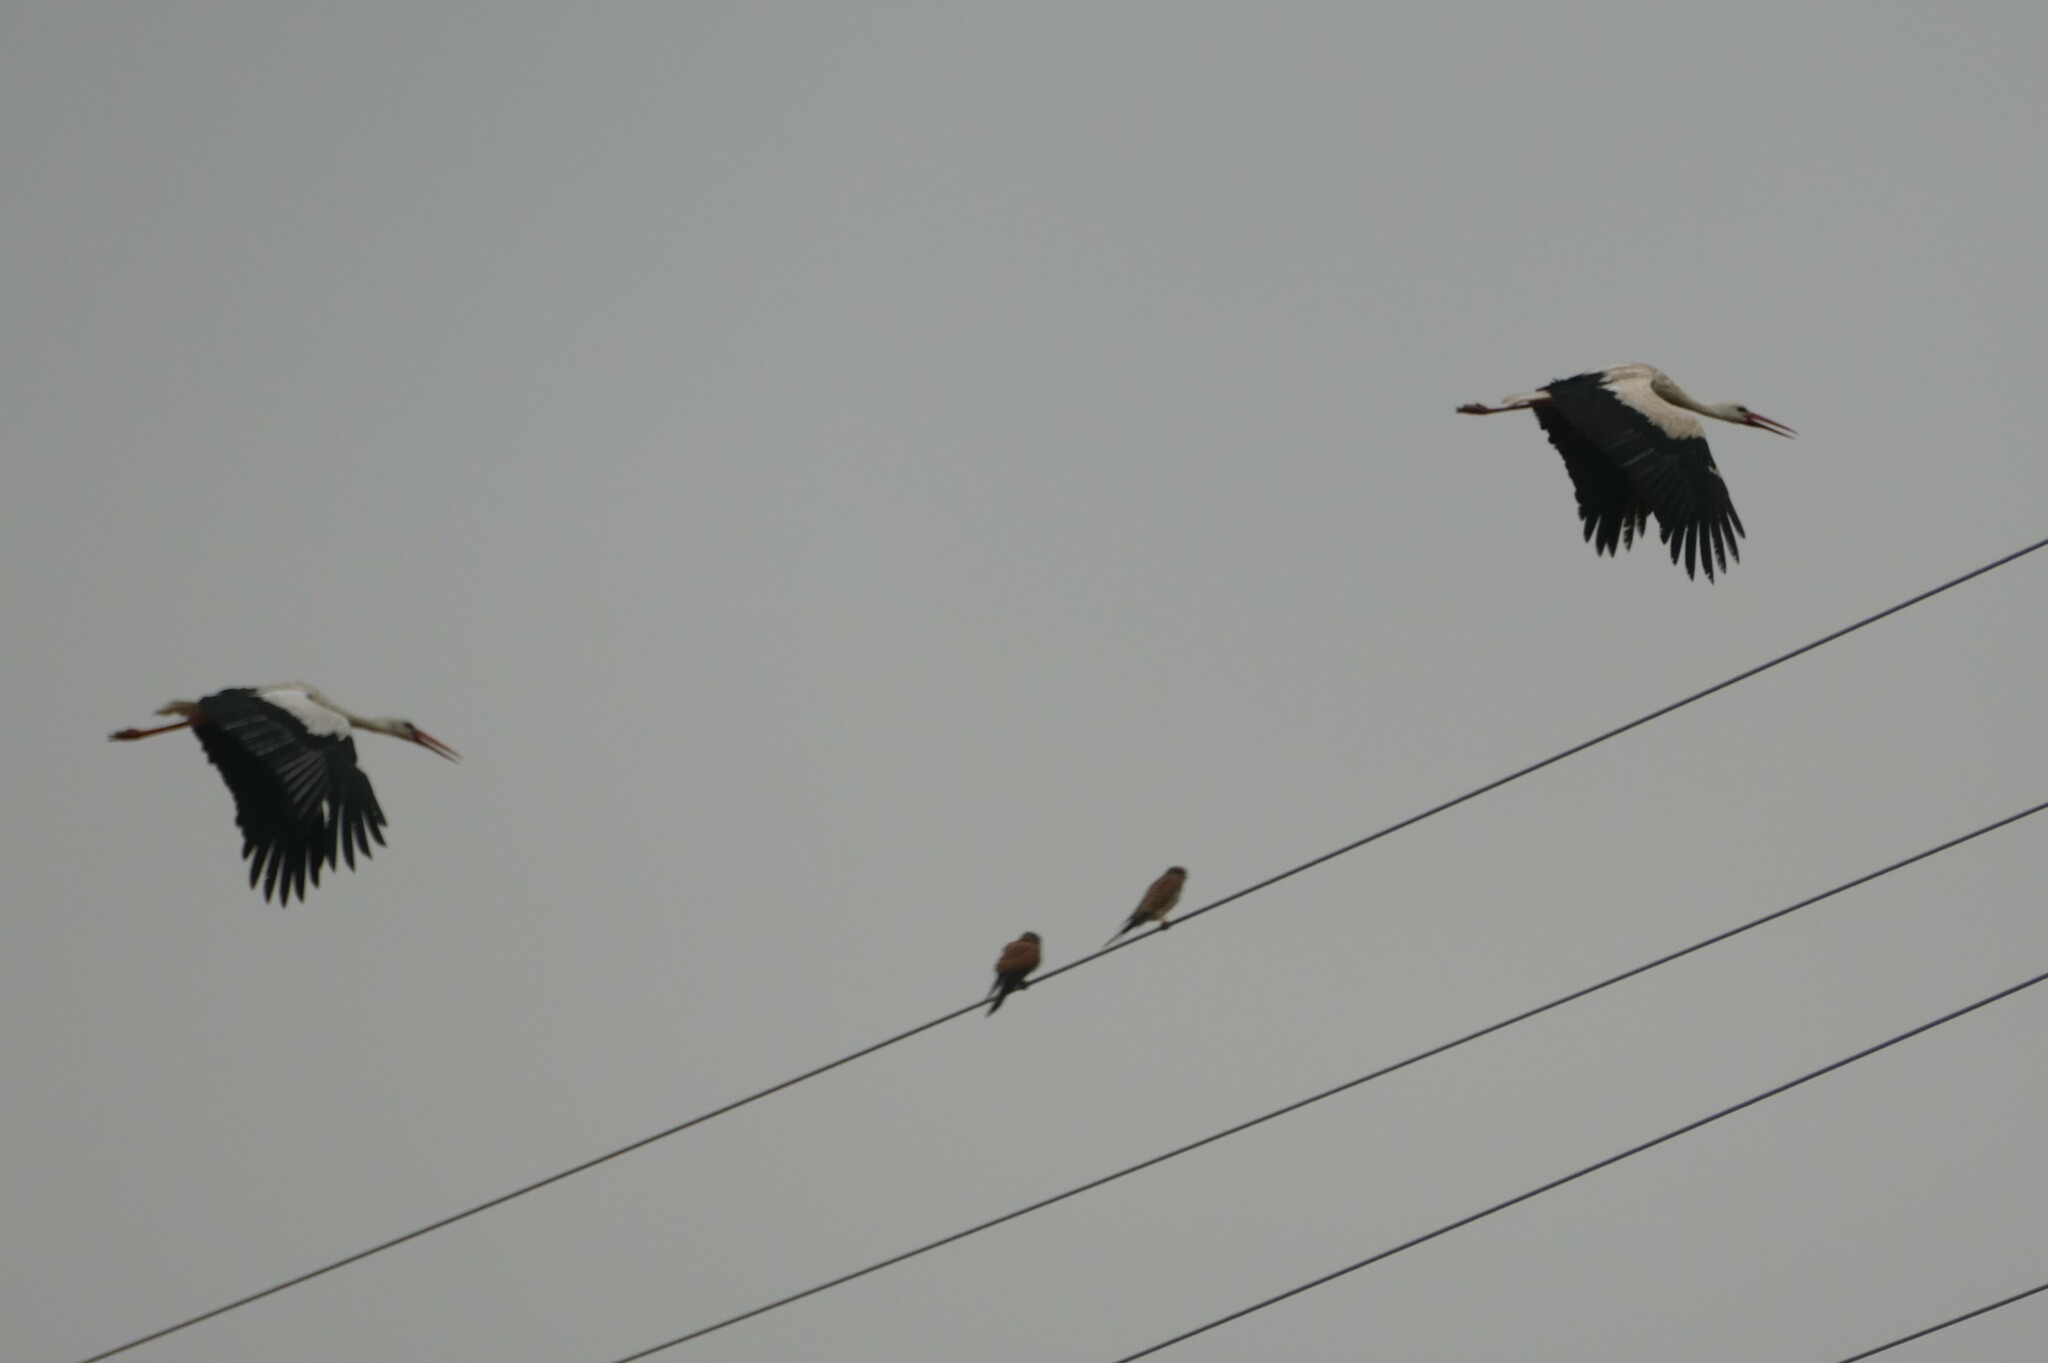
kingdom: Animalia
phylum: Chordata
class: Aves
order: Ciconiiformes
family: Ciconiidae
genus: Ciconia
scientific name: Ciconia ciconia
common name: White stork
